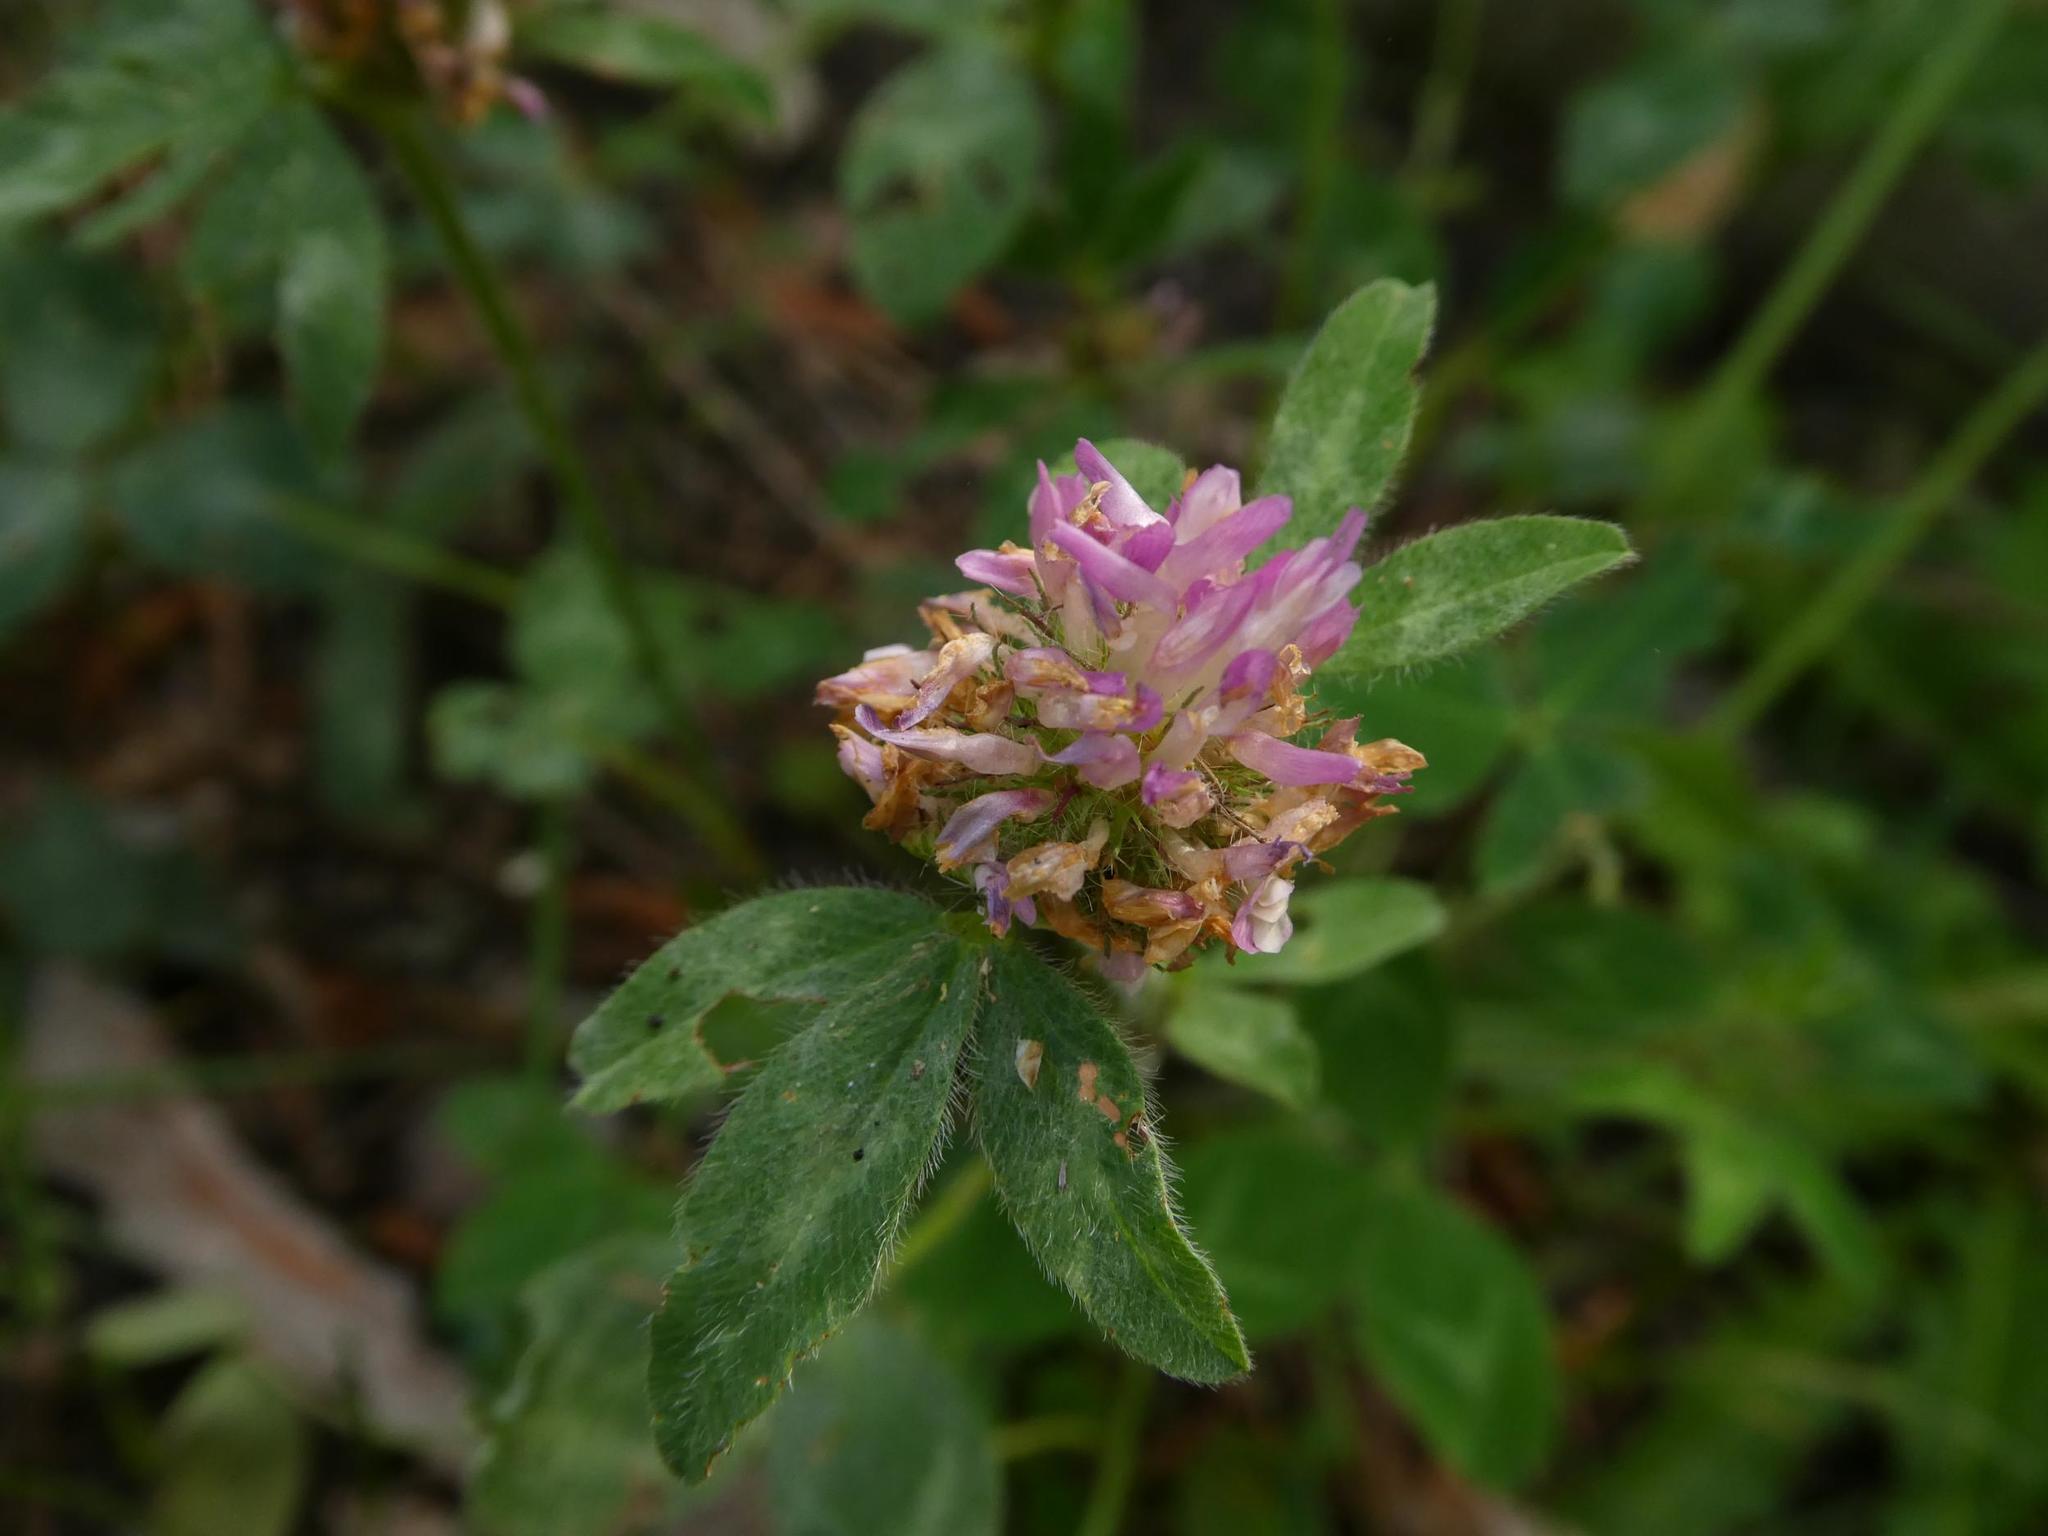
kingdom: Plantae
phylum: Tracheophyta
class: Magnoliopsida
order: Fabales
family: Fabaceae
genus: Trifolium
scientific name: Trifolium pratense
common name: Red clover
